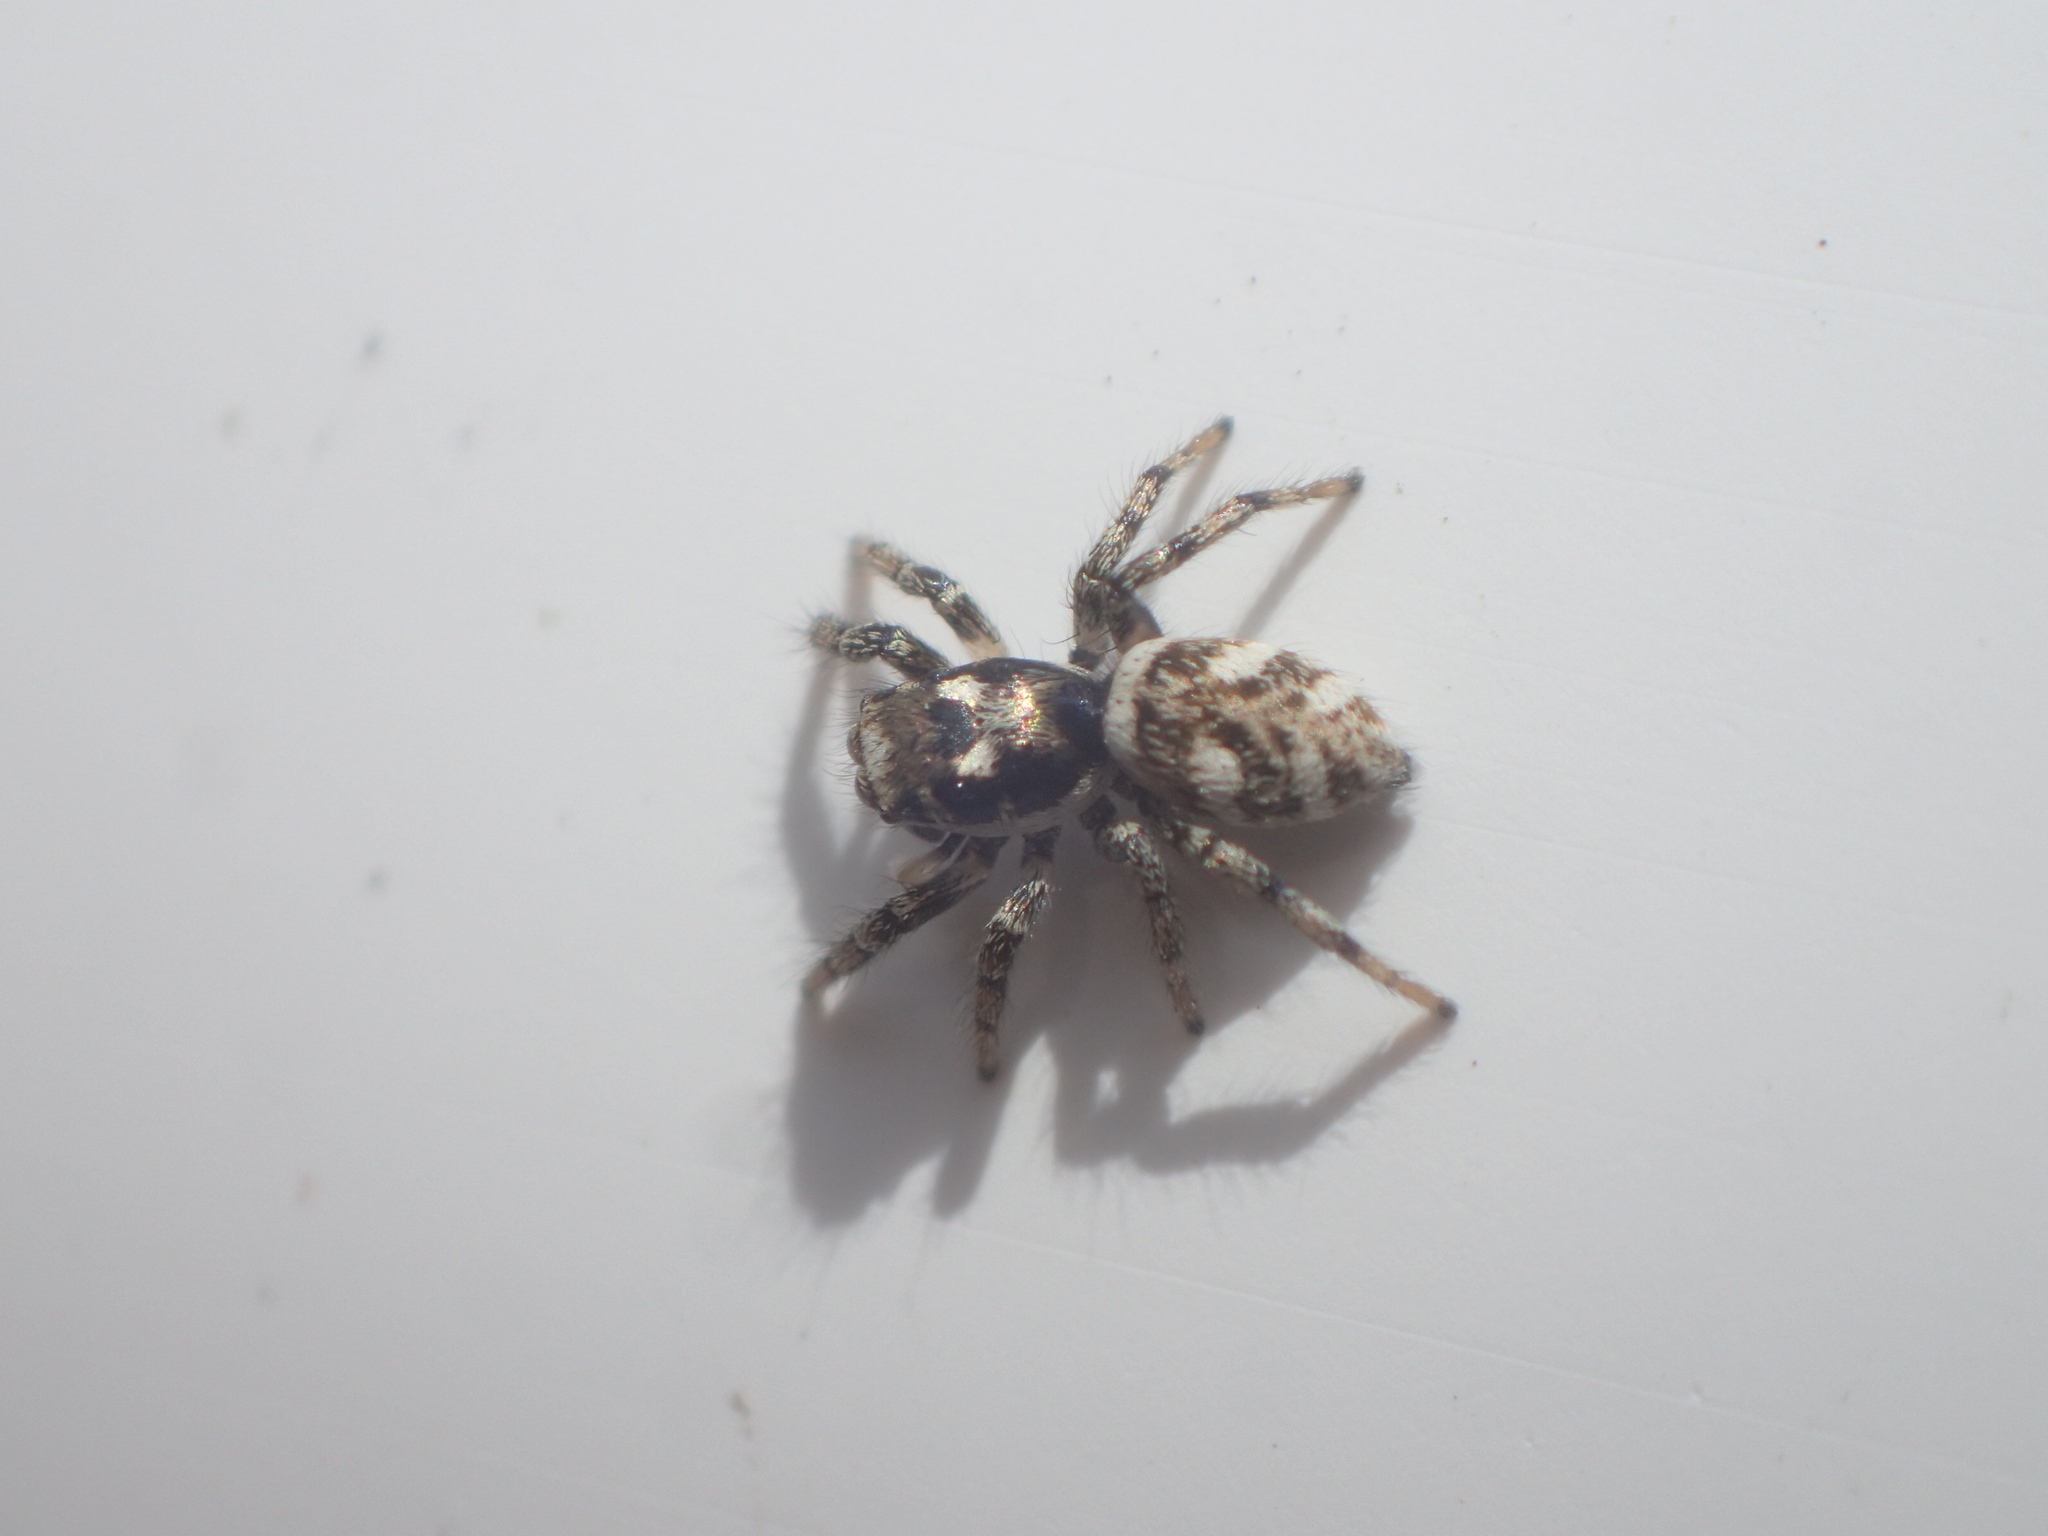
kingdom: Animalia
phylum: Arthropoda
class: Arachnida
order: Araneae
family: Salticidae
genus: Salticus
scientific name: Salticus scenicus
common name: Zebra jumper
